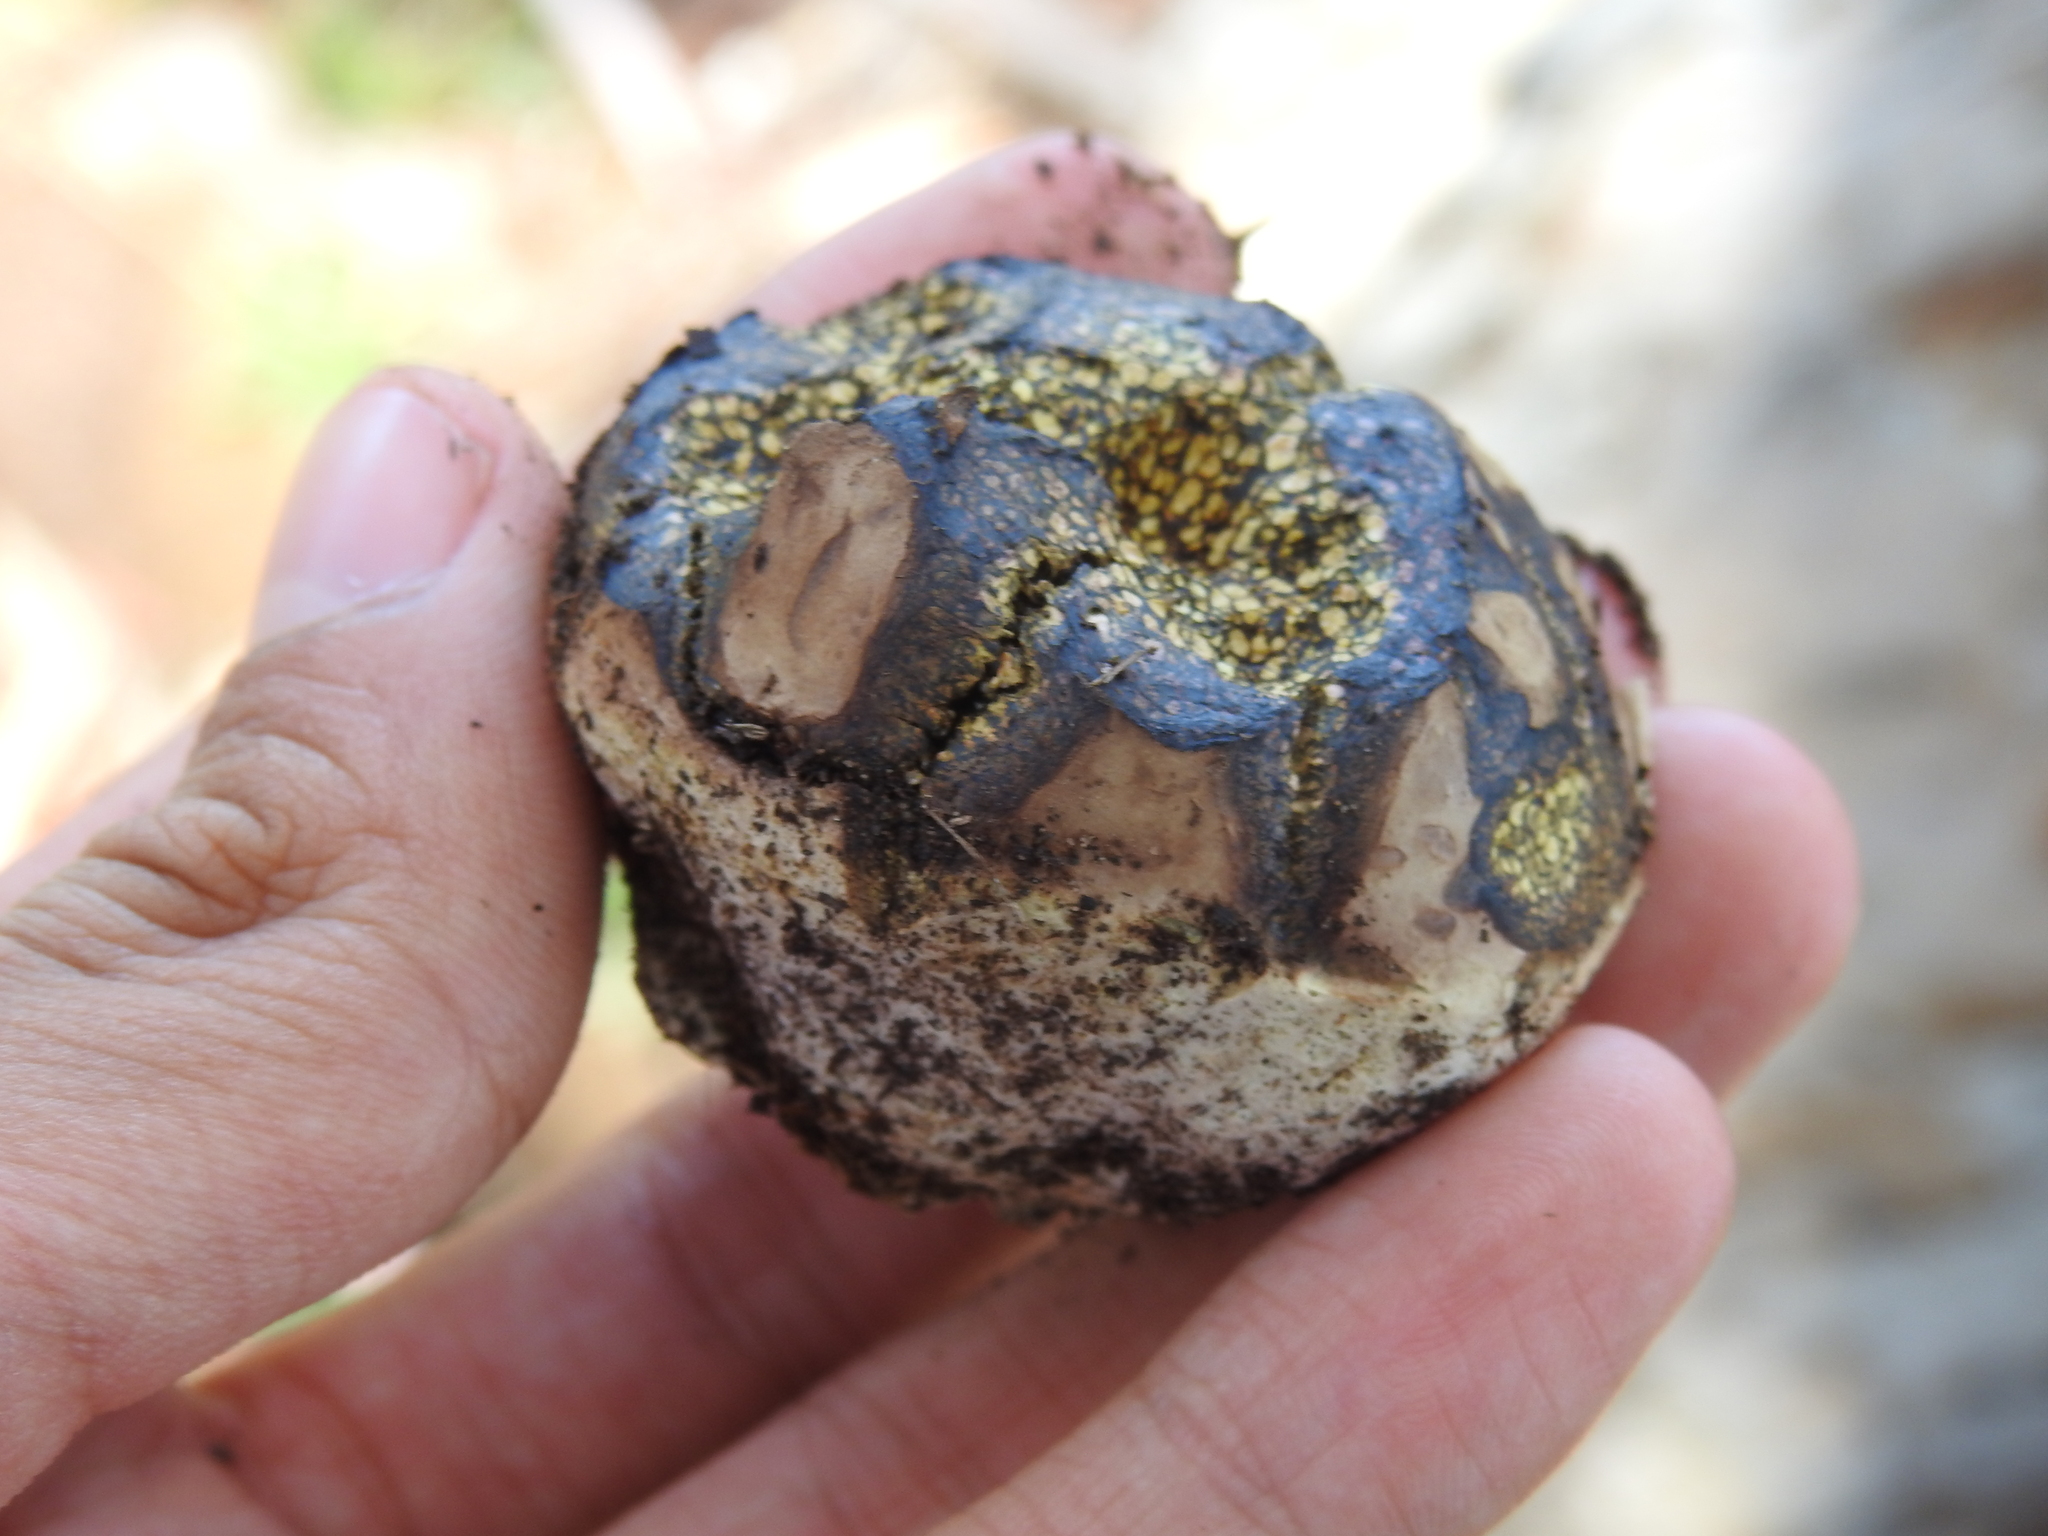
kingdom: Fungi
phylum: Basidiomycota
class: Agaricomycetes
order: Boletales
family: Sclerodermataceae
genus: Pisolithus
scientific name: Pisolithus arhizus
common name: Dyeball
